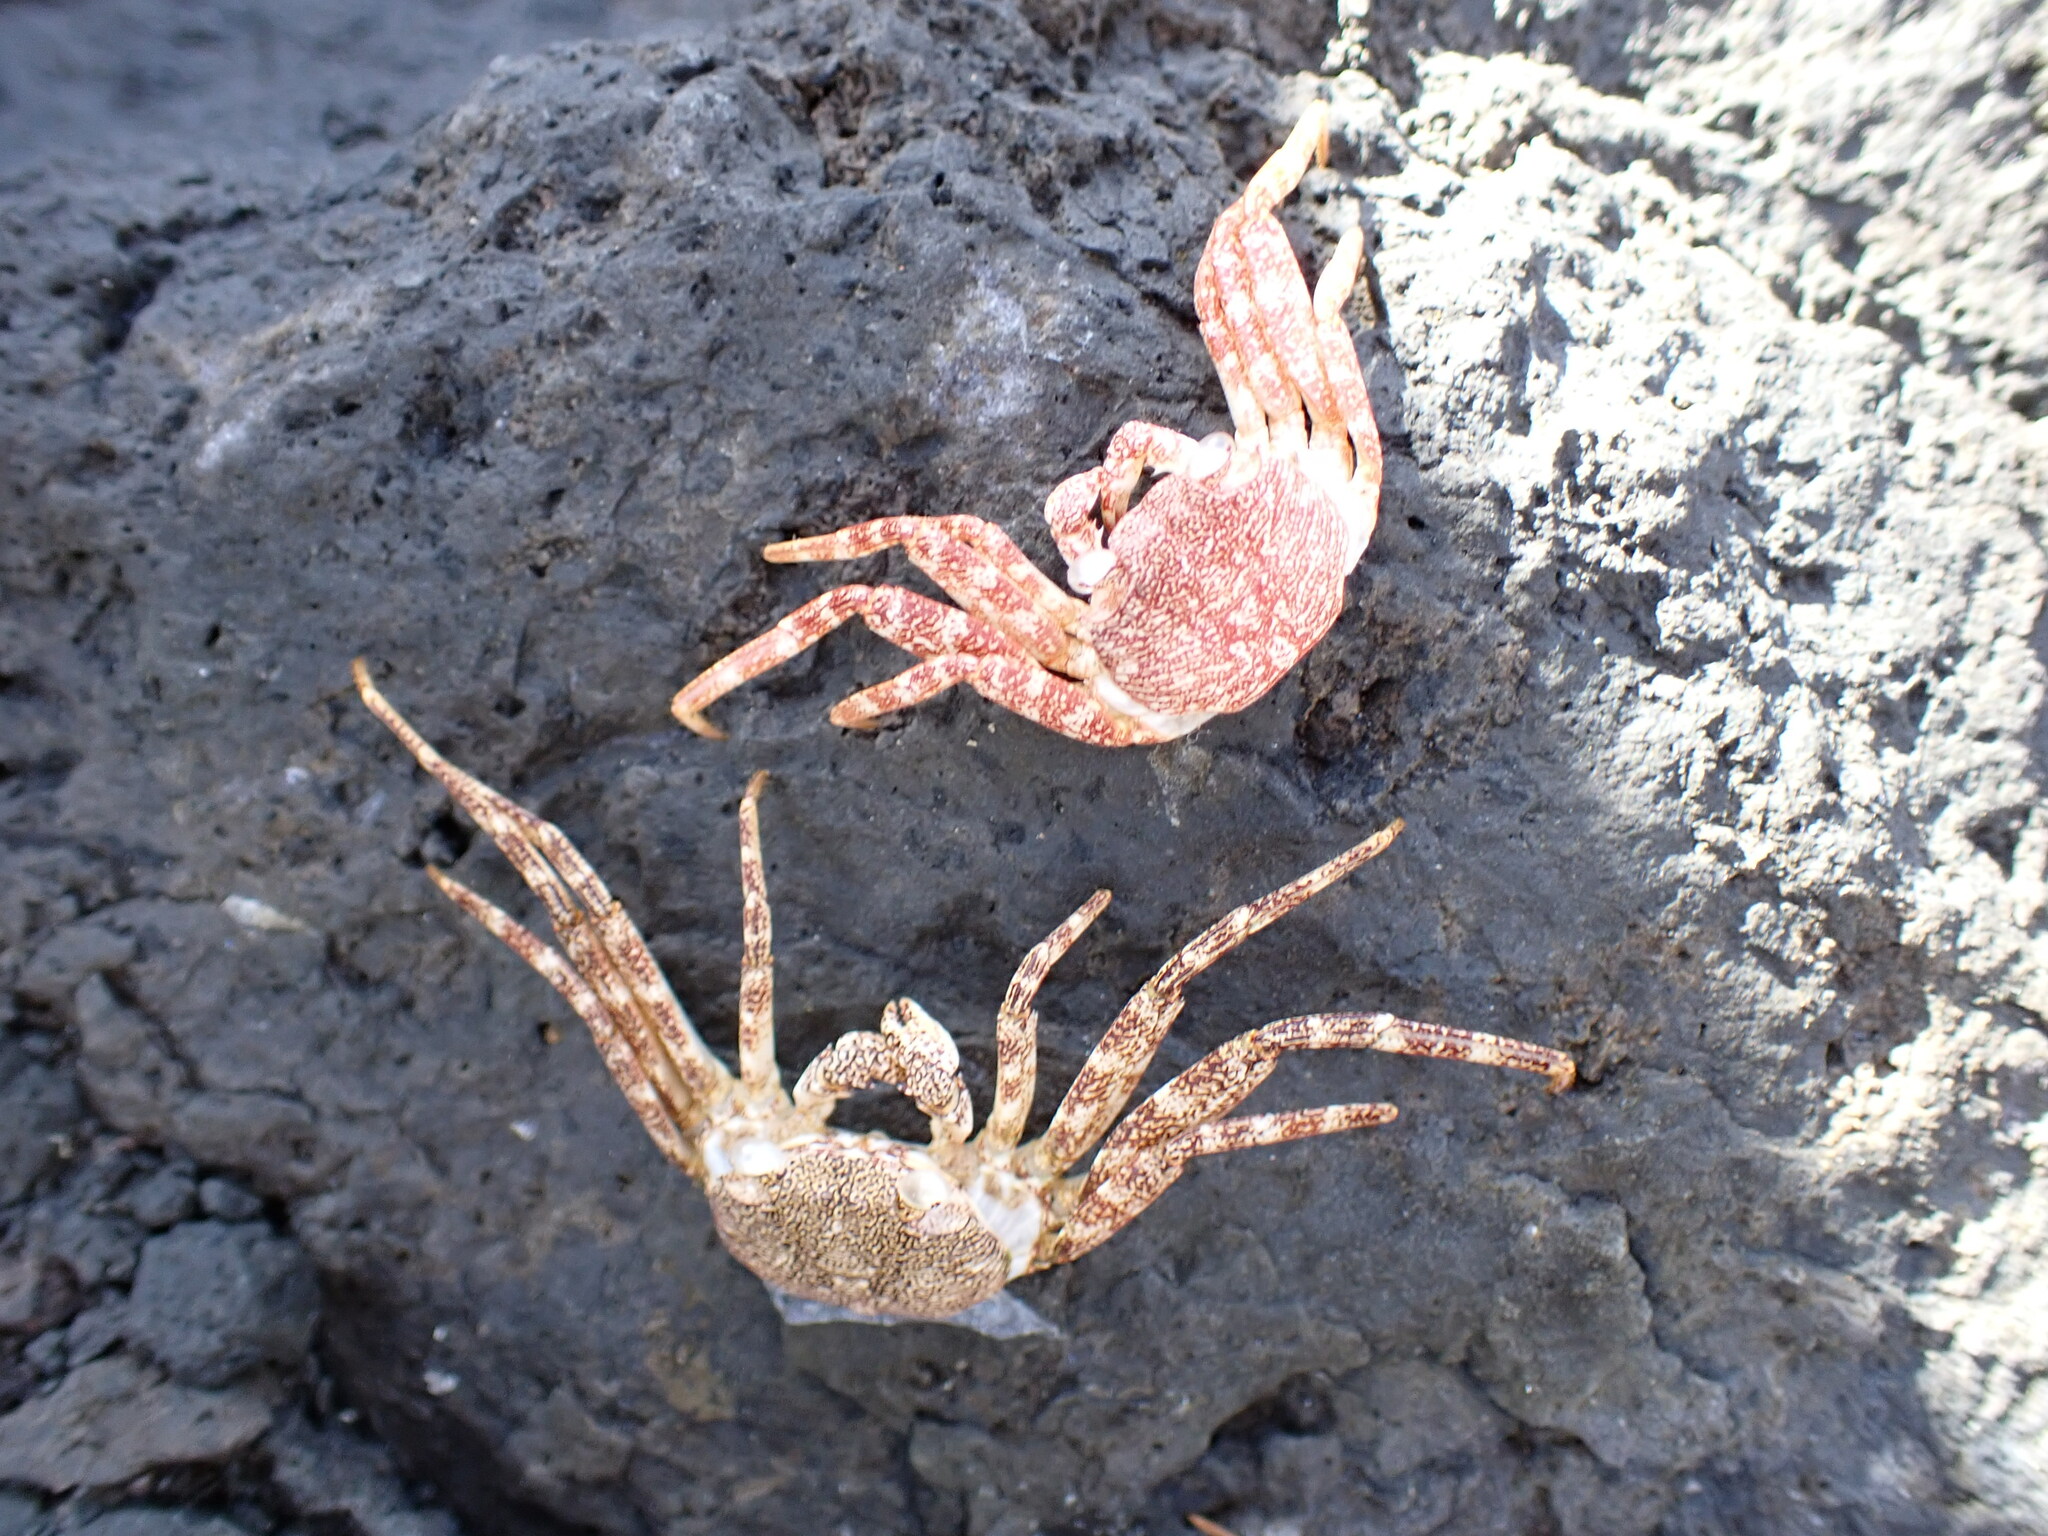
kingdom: Animalia
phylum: Arthropoda
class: Malacostraca
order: Decapoda
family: Grapsidae
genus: Grapsus
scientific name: Grapsus adscensionis
